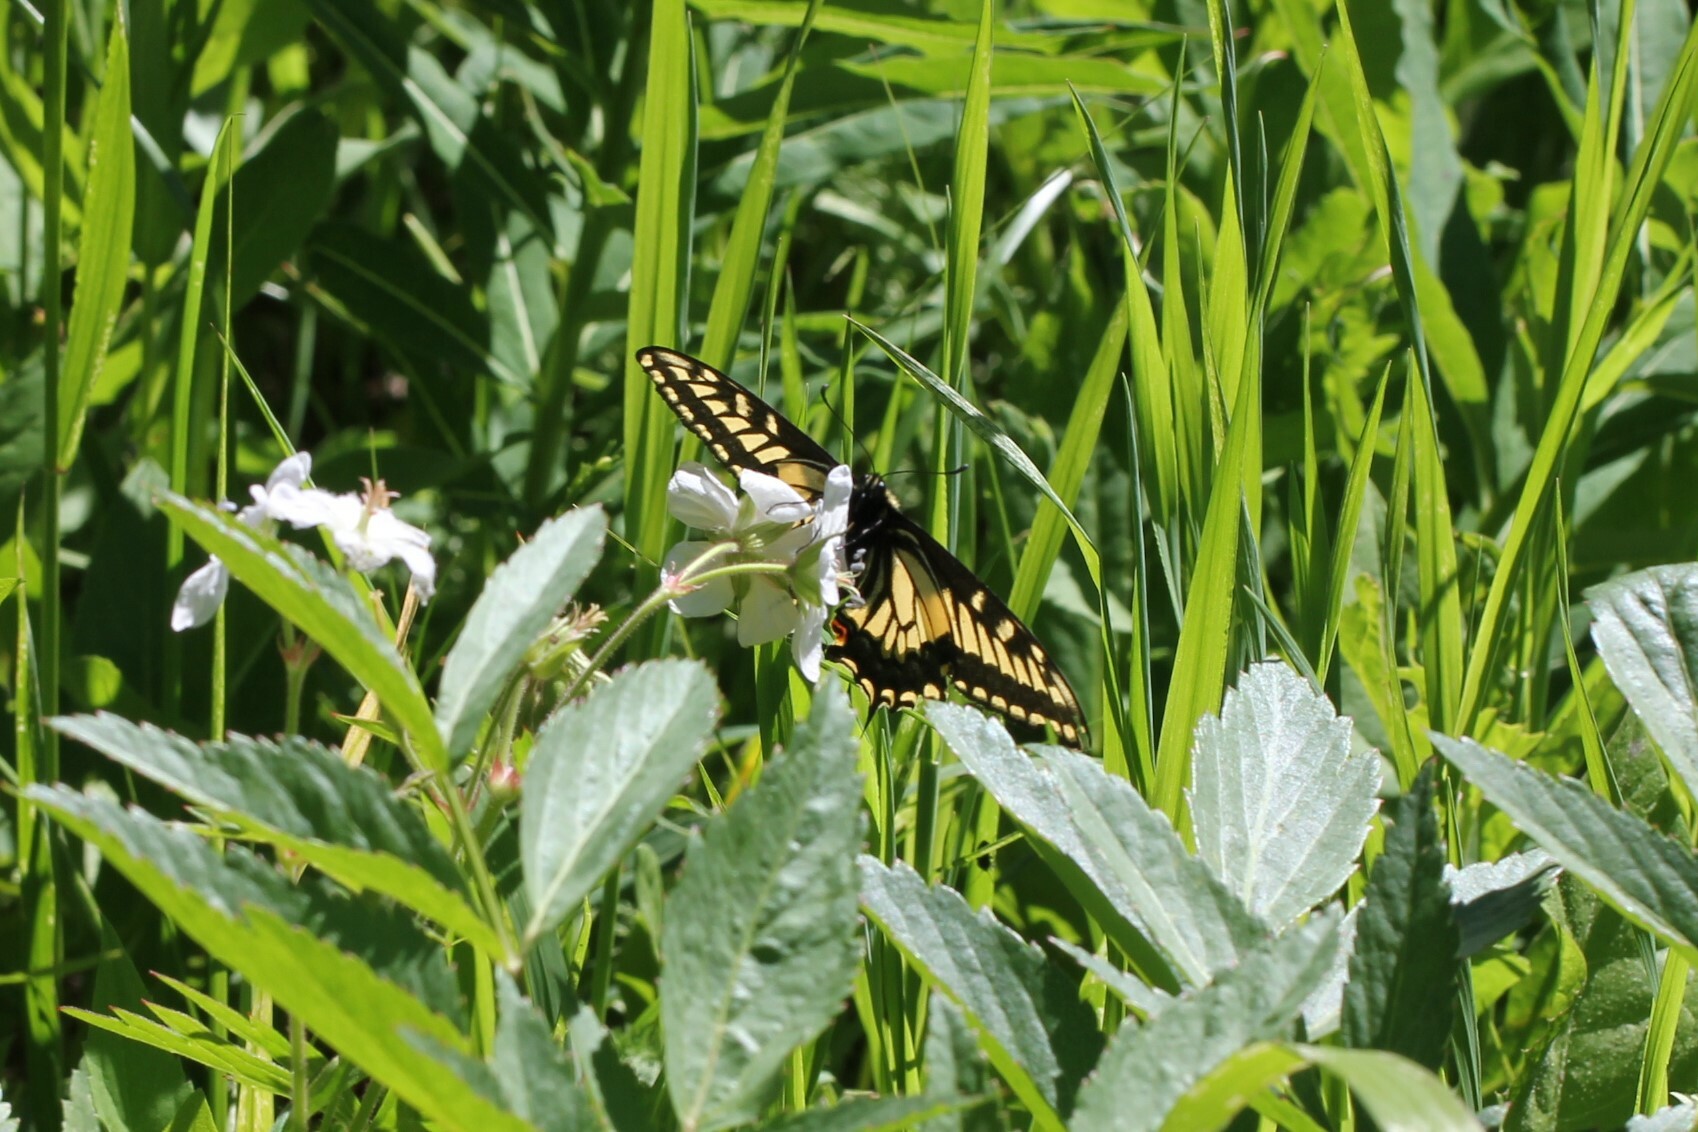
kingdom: Animalia
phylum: Arthropoda
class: Insecta
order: Lepidoptera
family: Papilionidae
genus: Papilio
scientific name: Papilio zelicaon
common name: Anise swallowtail
